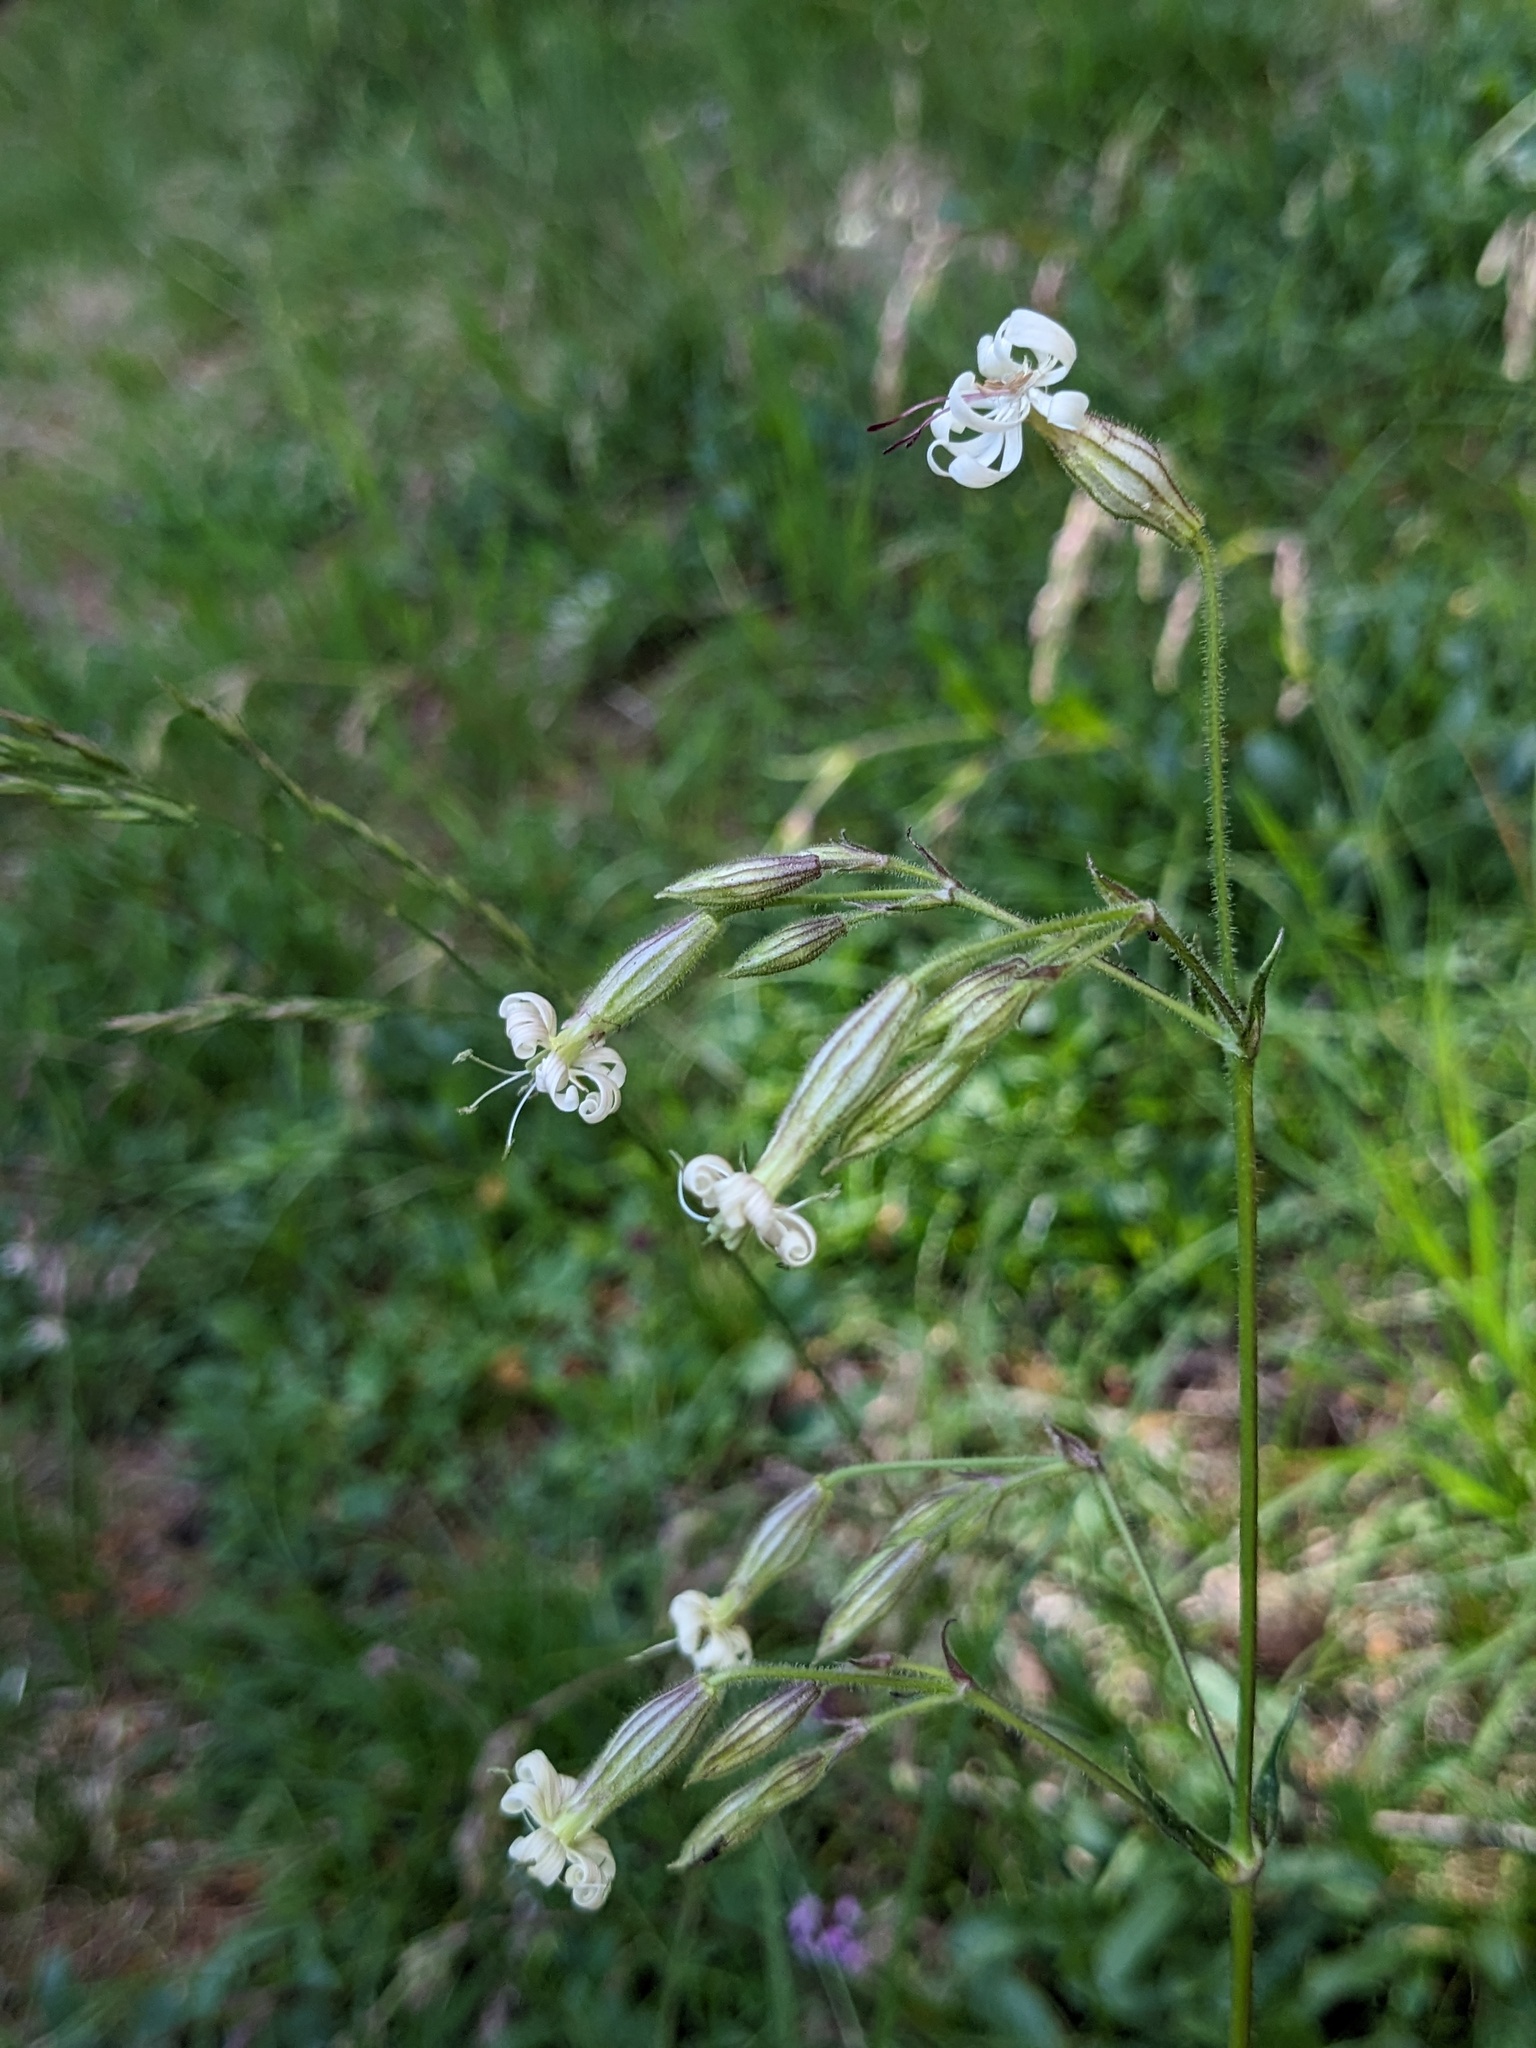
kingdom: Plantae
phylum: Tracheophyta
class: Magnoliopsida
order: Caryophyllales
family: Caryophyllaceae
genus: Silene
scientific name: Silene nutans
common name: Nottingham catchfly
